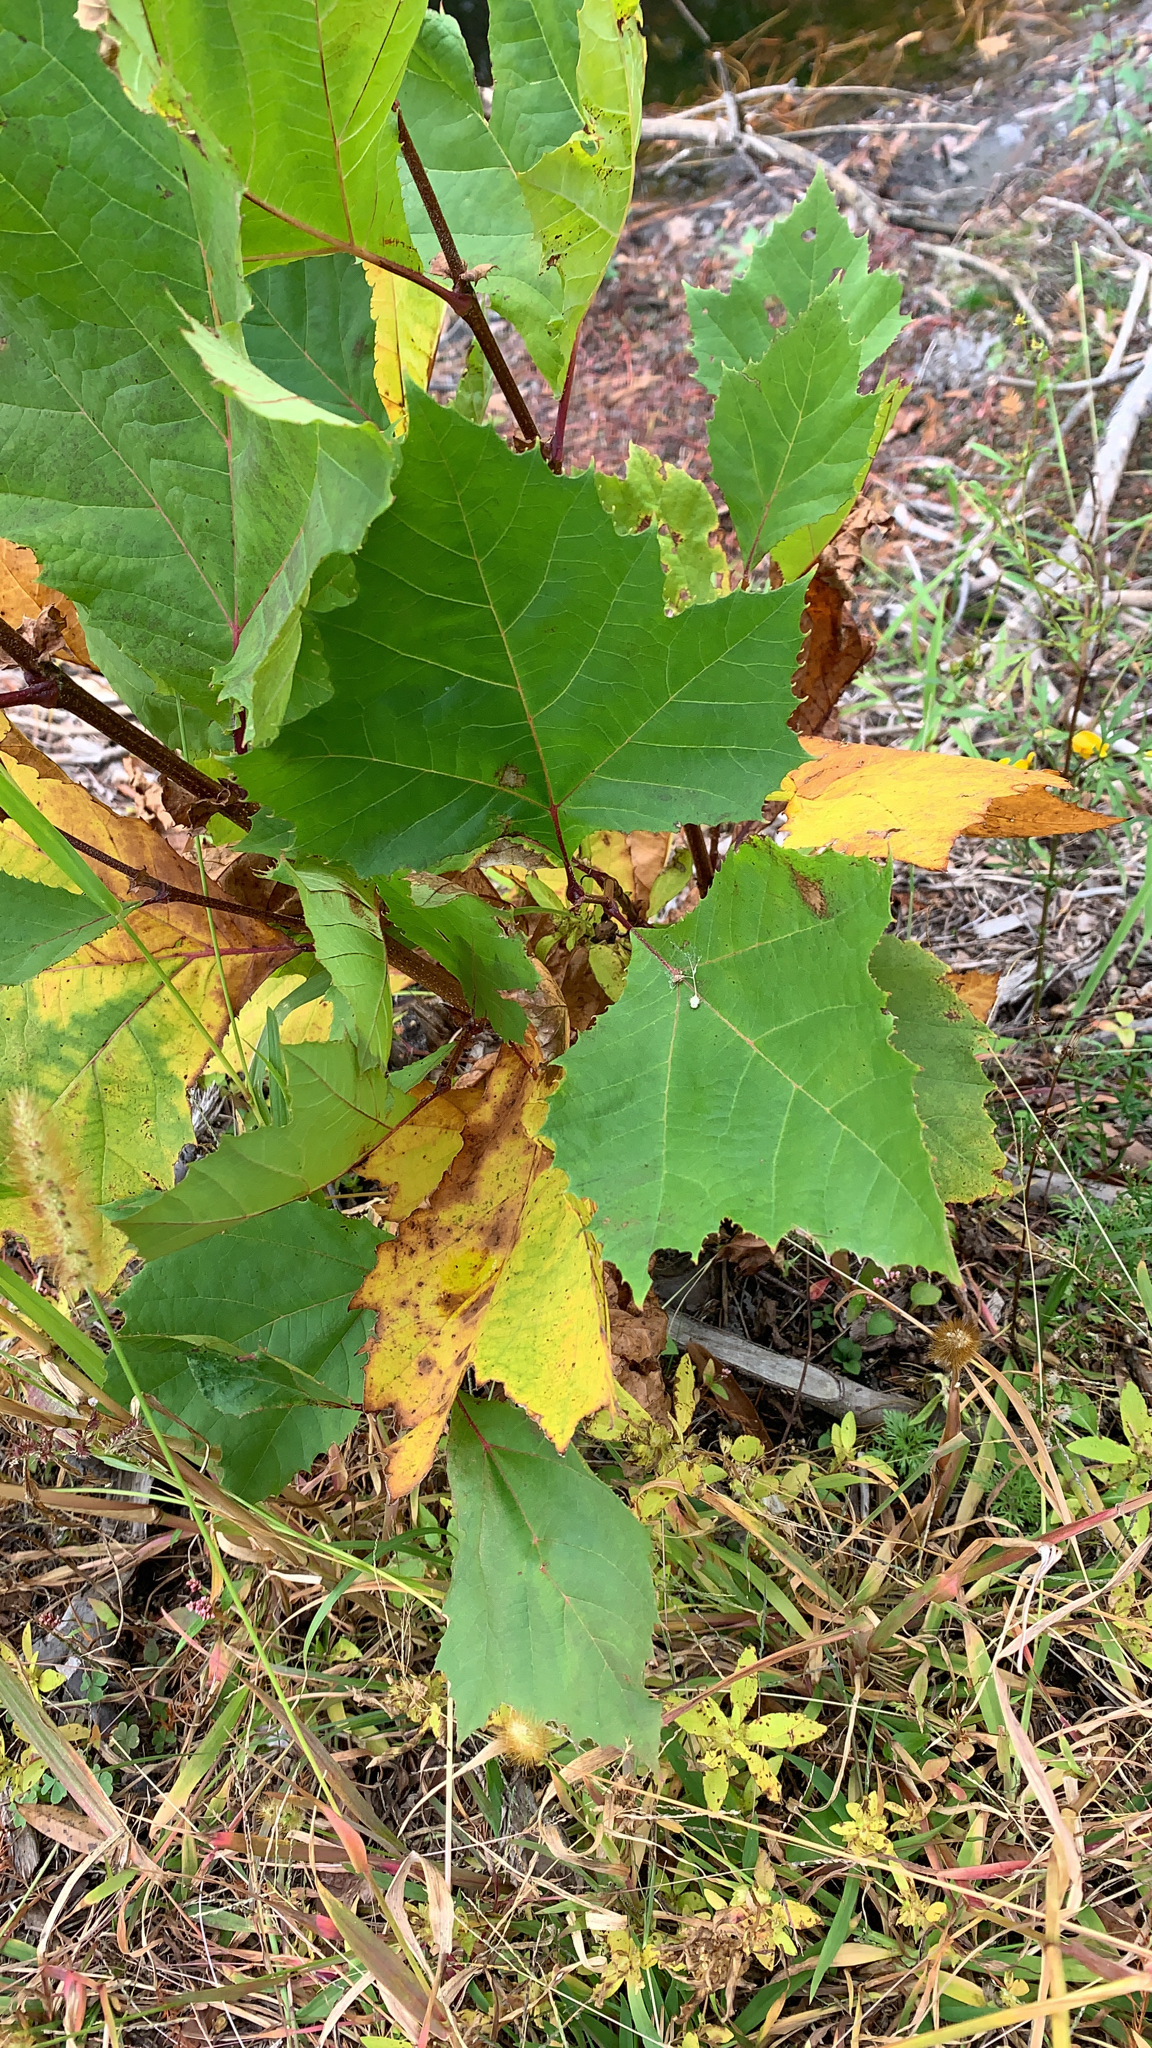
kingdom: Plantae
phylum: Tracheophyta
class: Magnoliopsida
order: Proteales
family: Platanaceae
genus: Platanus
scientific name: Platanus occidentalis
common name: American sycamore
